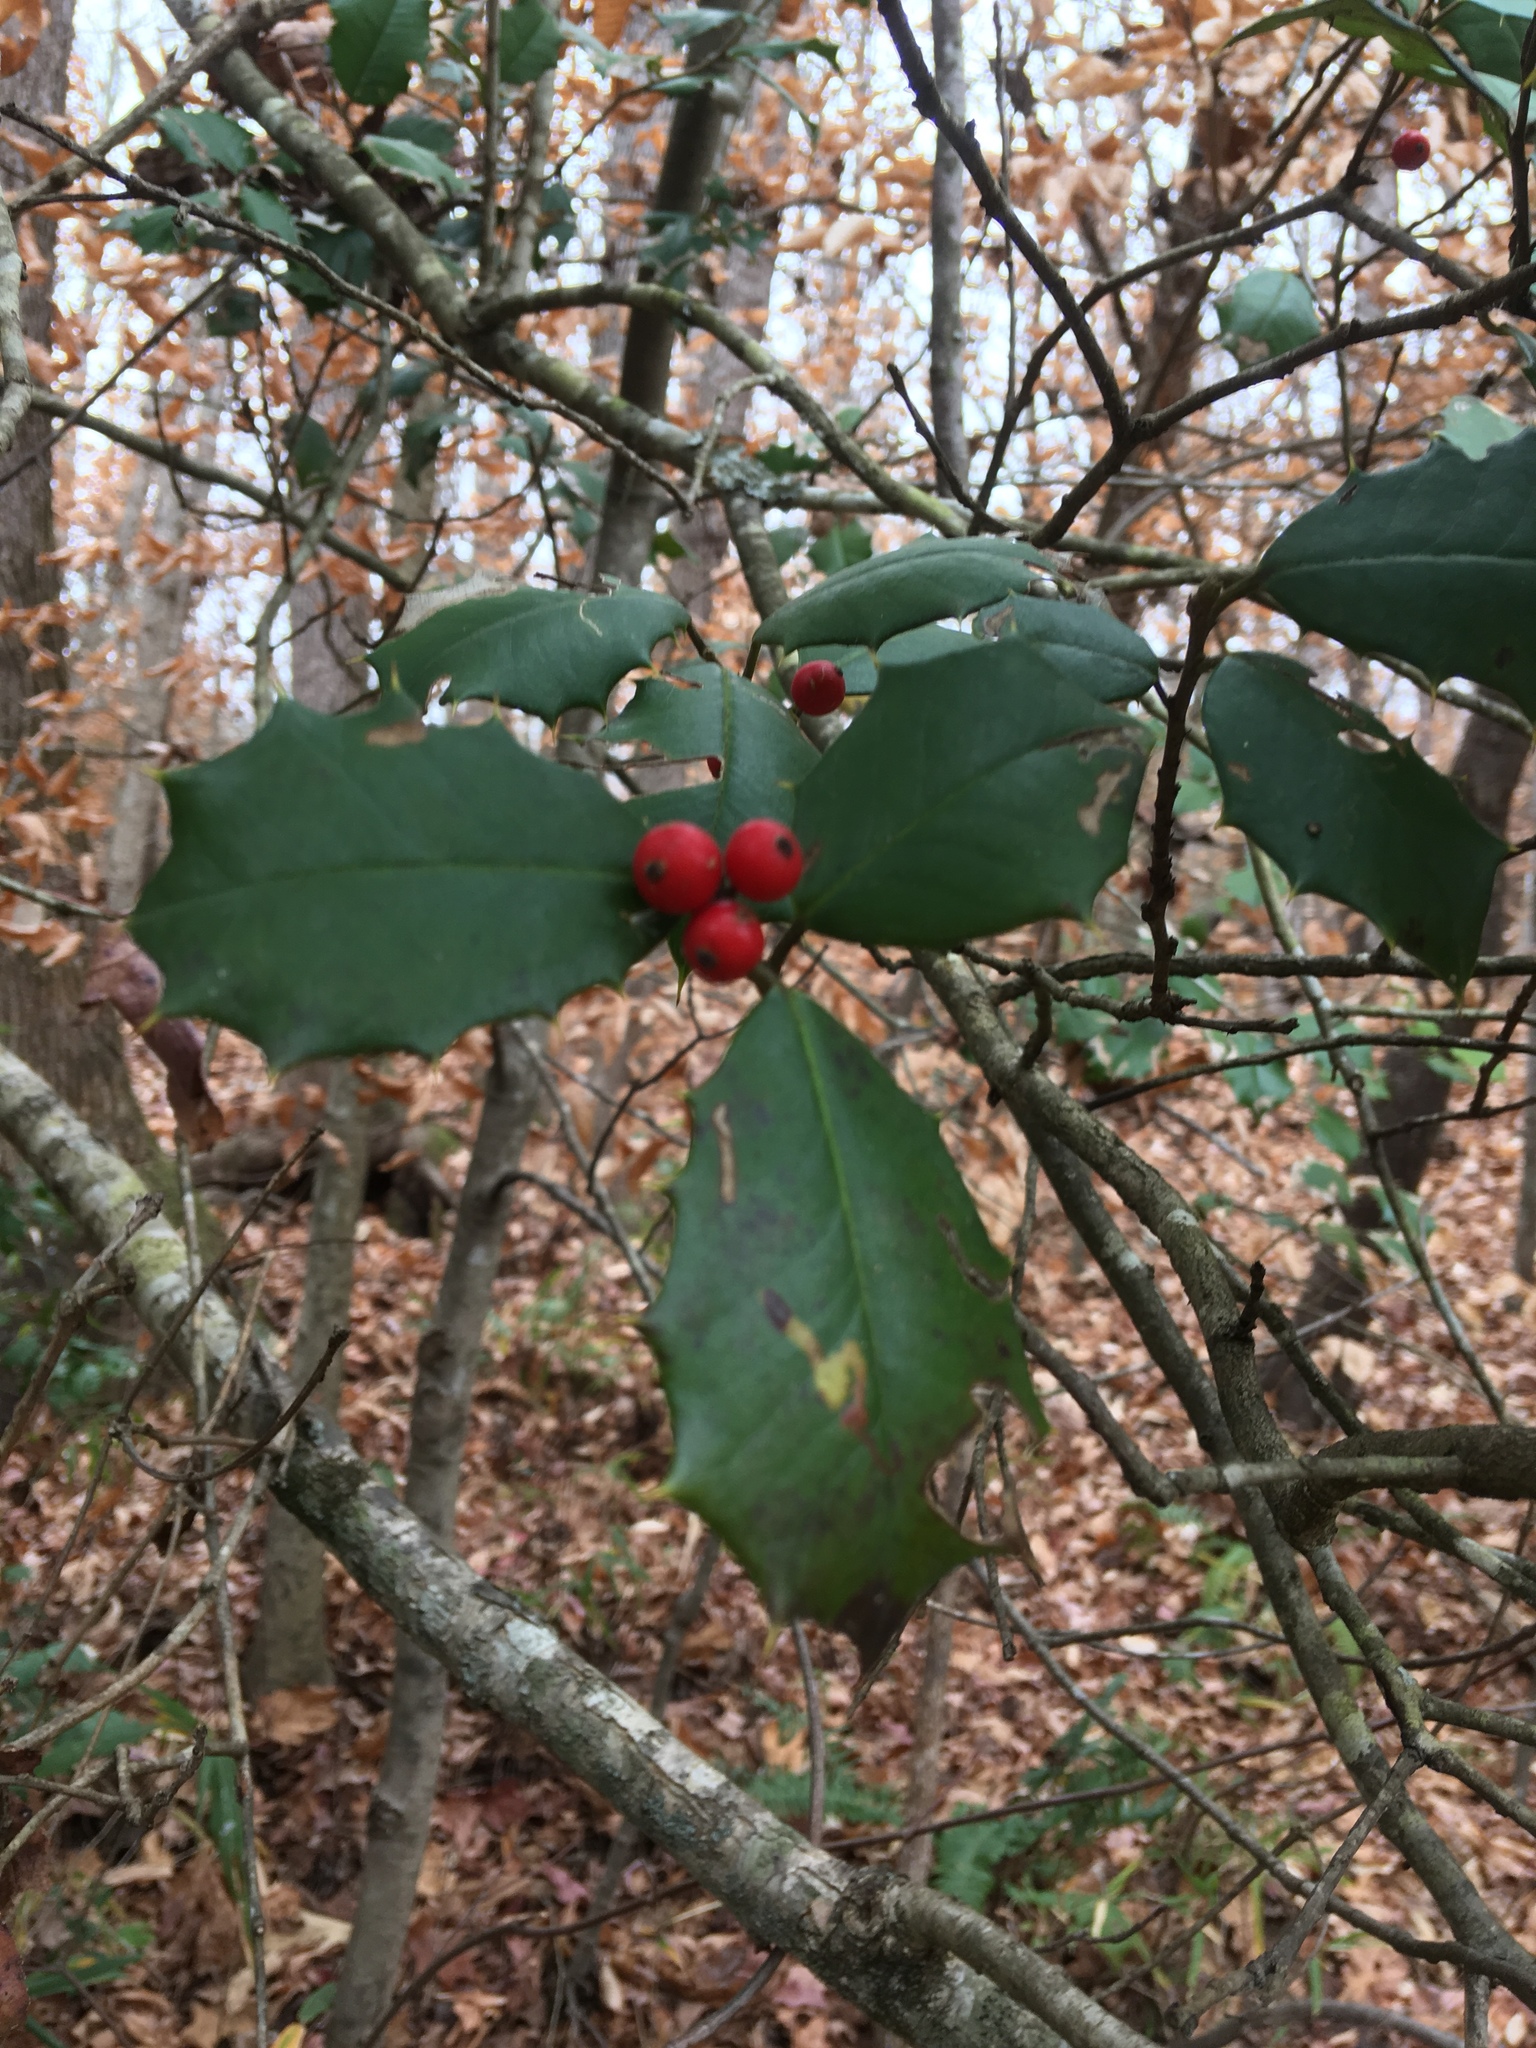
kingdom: Plantae
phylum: Tracheophyta
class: Magnoliopsida
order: Aquifoliales
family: Aquifoliaceae
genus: Ilex
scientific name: Ilex opaca
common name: American holly
